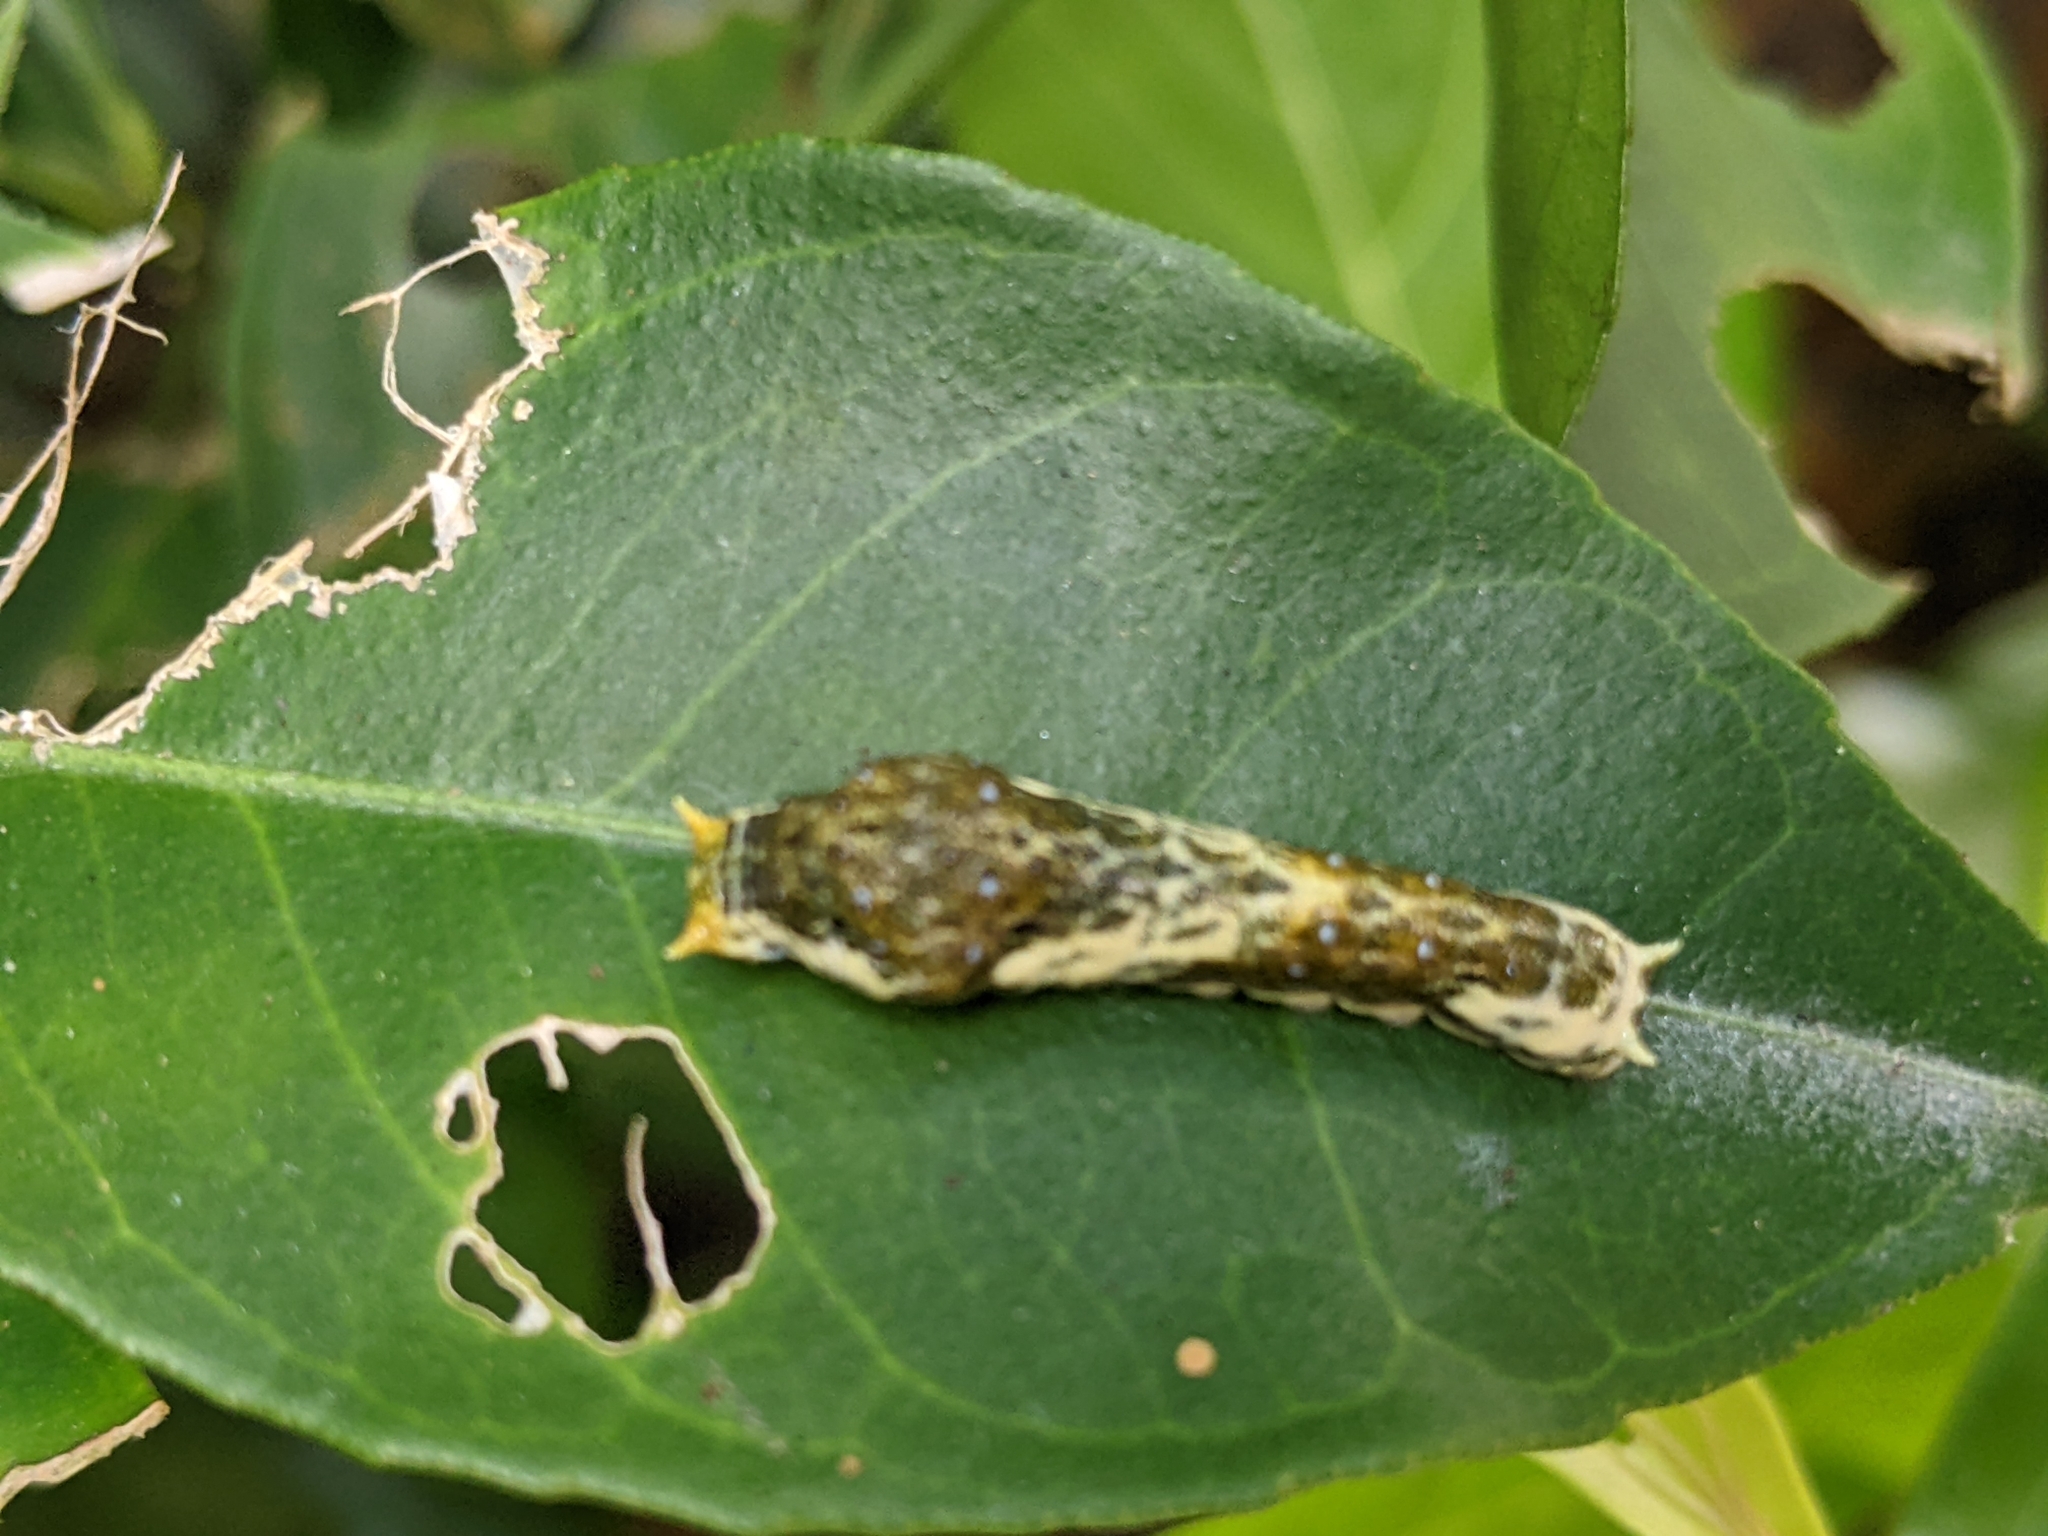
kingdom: Animalia
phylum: Arthropoda
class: Insecta
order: Lepidoptera
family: Papilionidae
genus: Papilio
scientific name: Papilio polytes
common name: Common mormon
